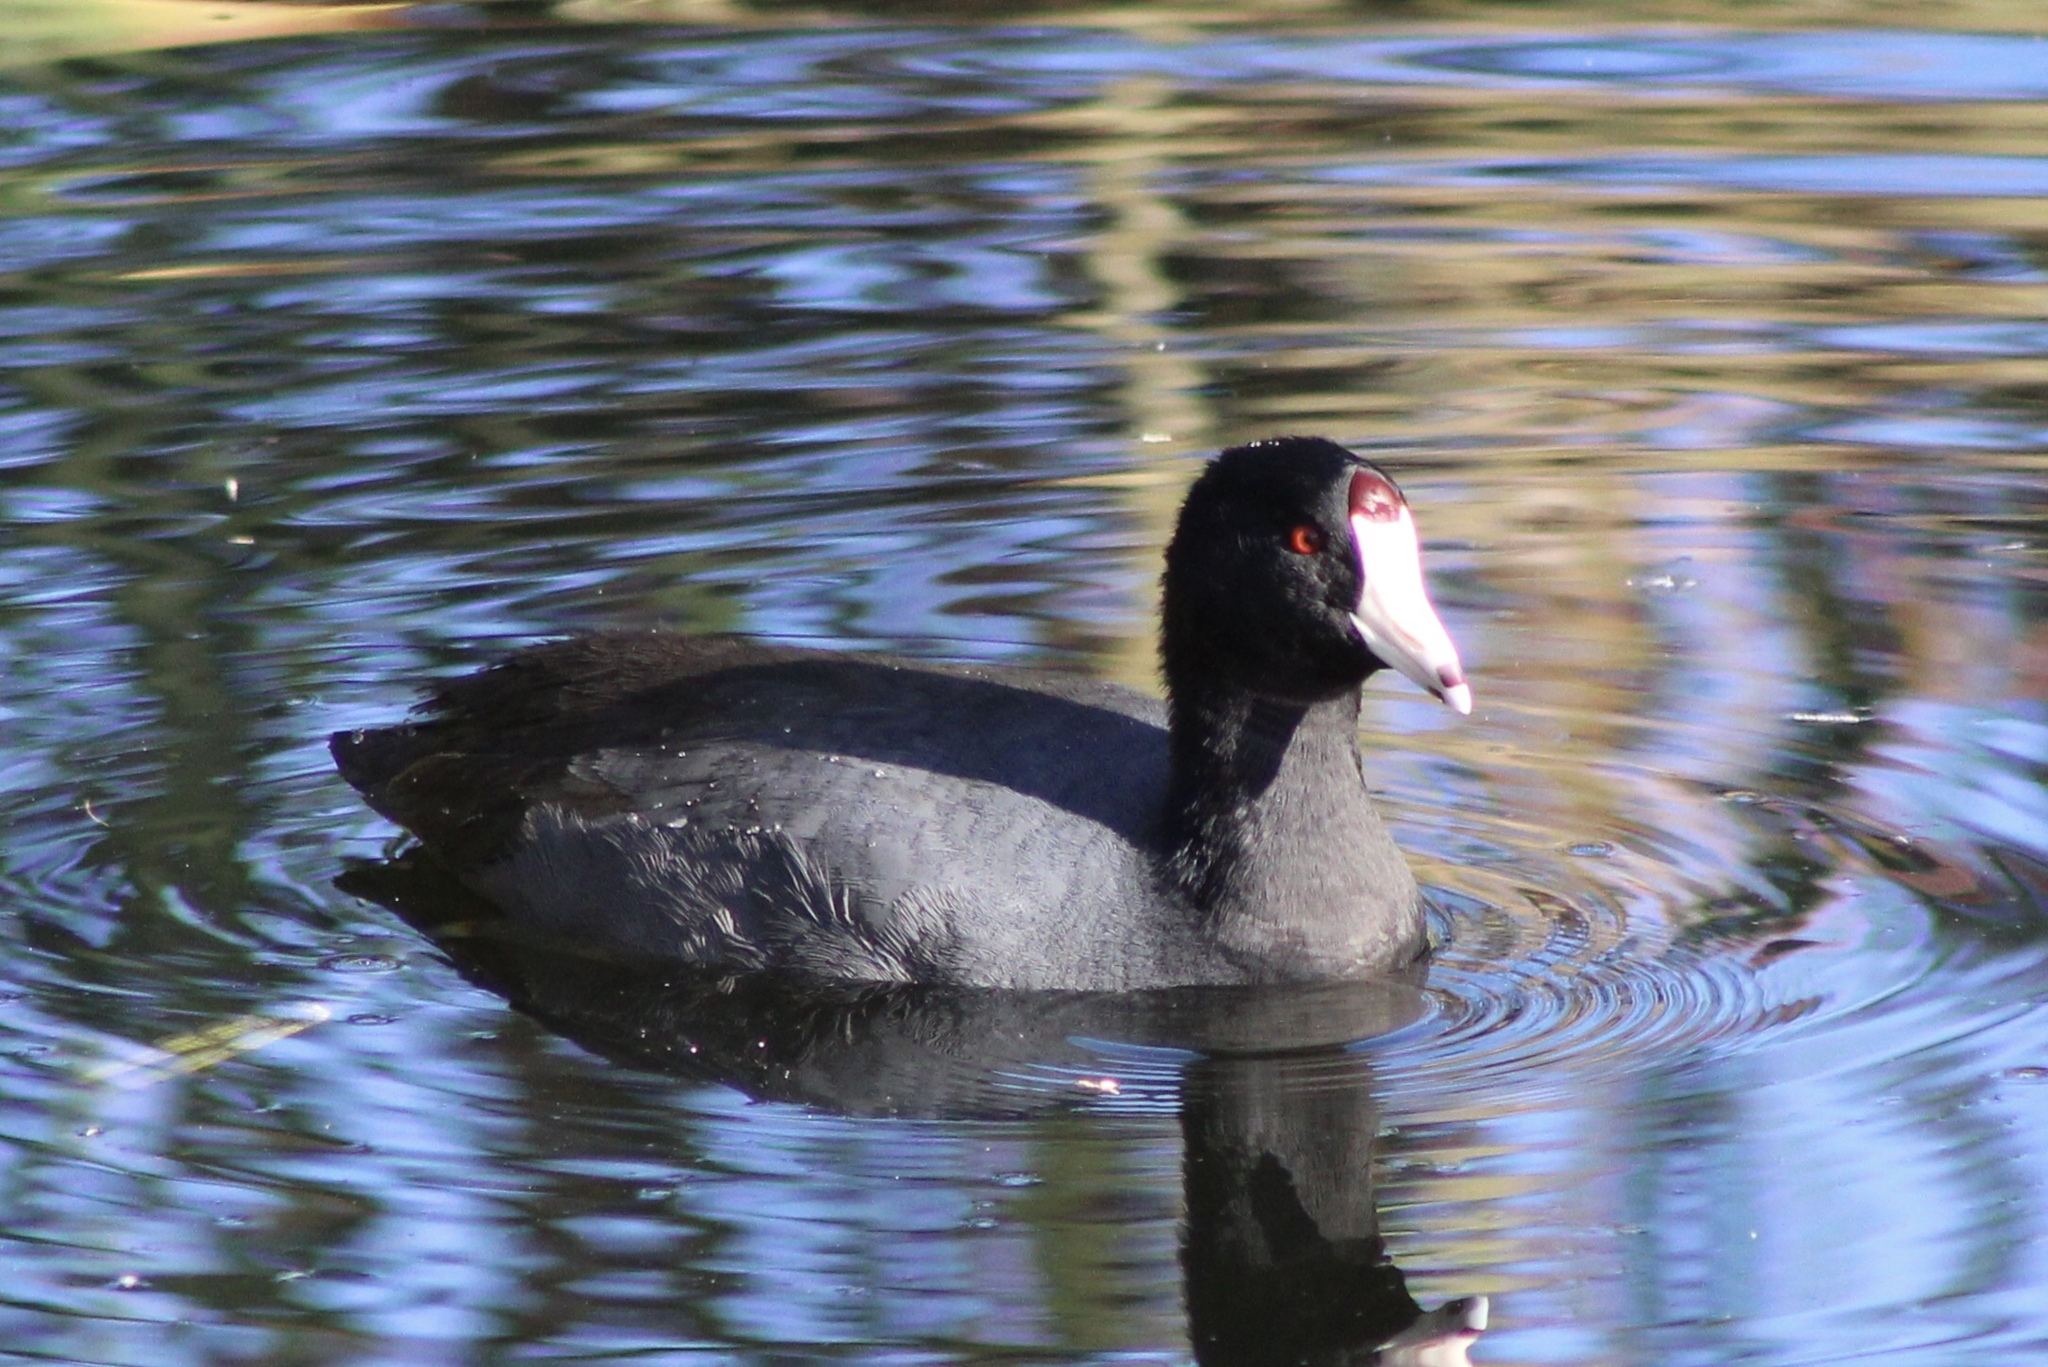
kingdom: Animalia
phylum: Chordata
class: Aves
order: Gruiformes
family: Rallidae
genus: Fulica
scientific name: Fulica americana
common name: American coot
